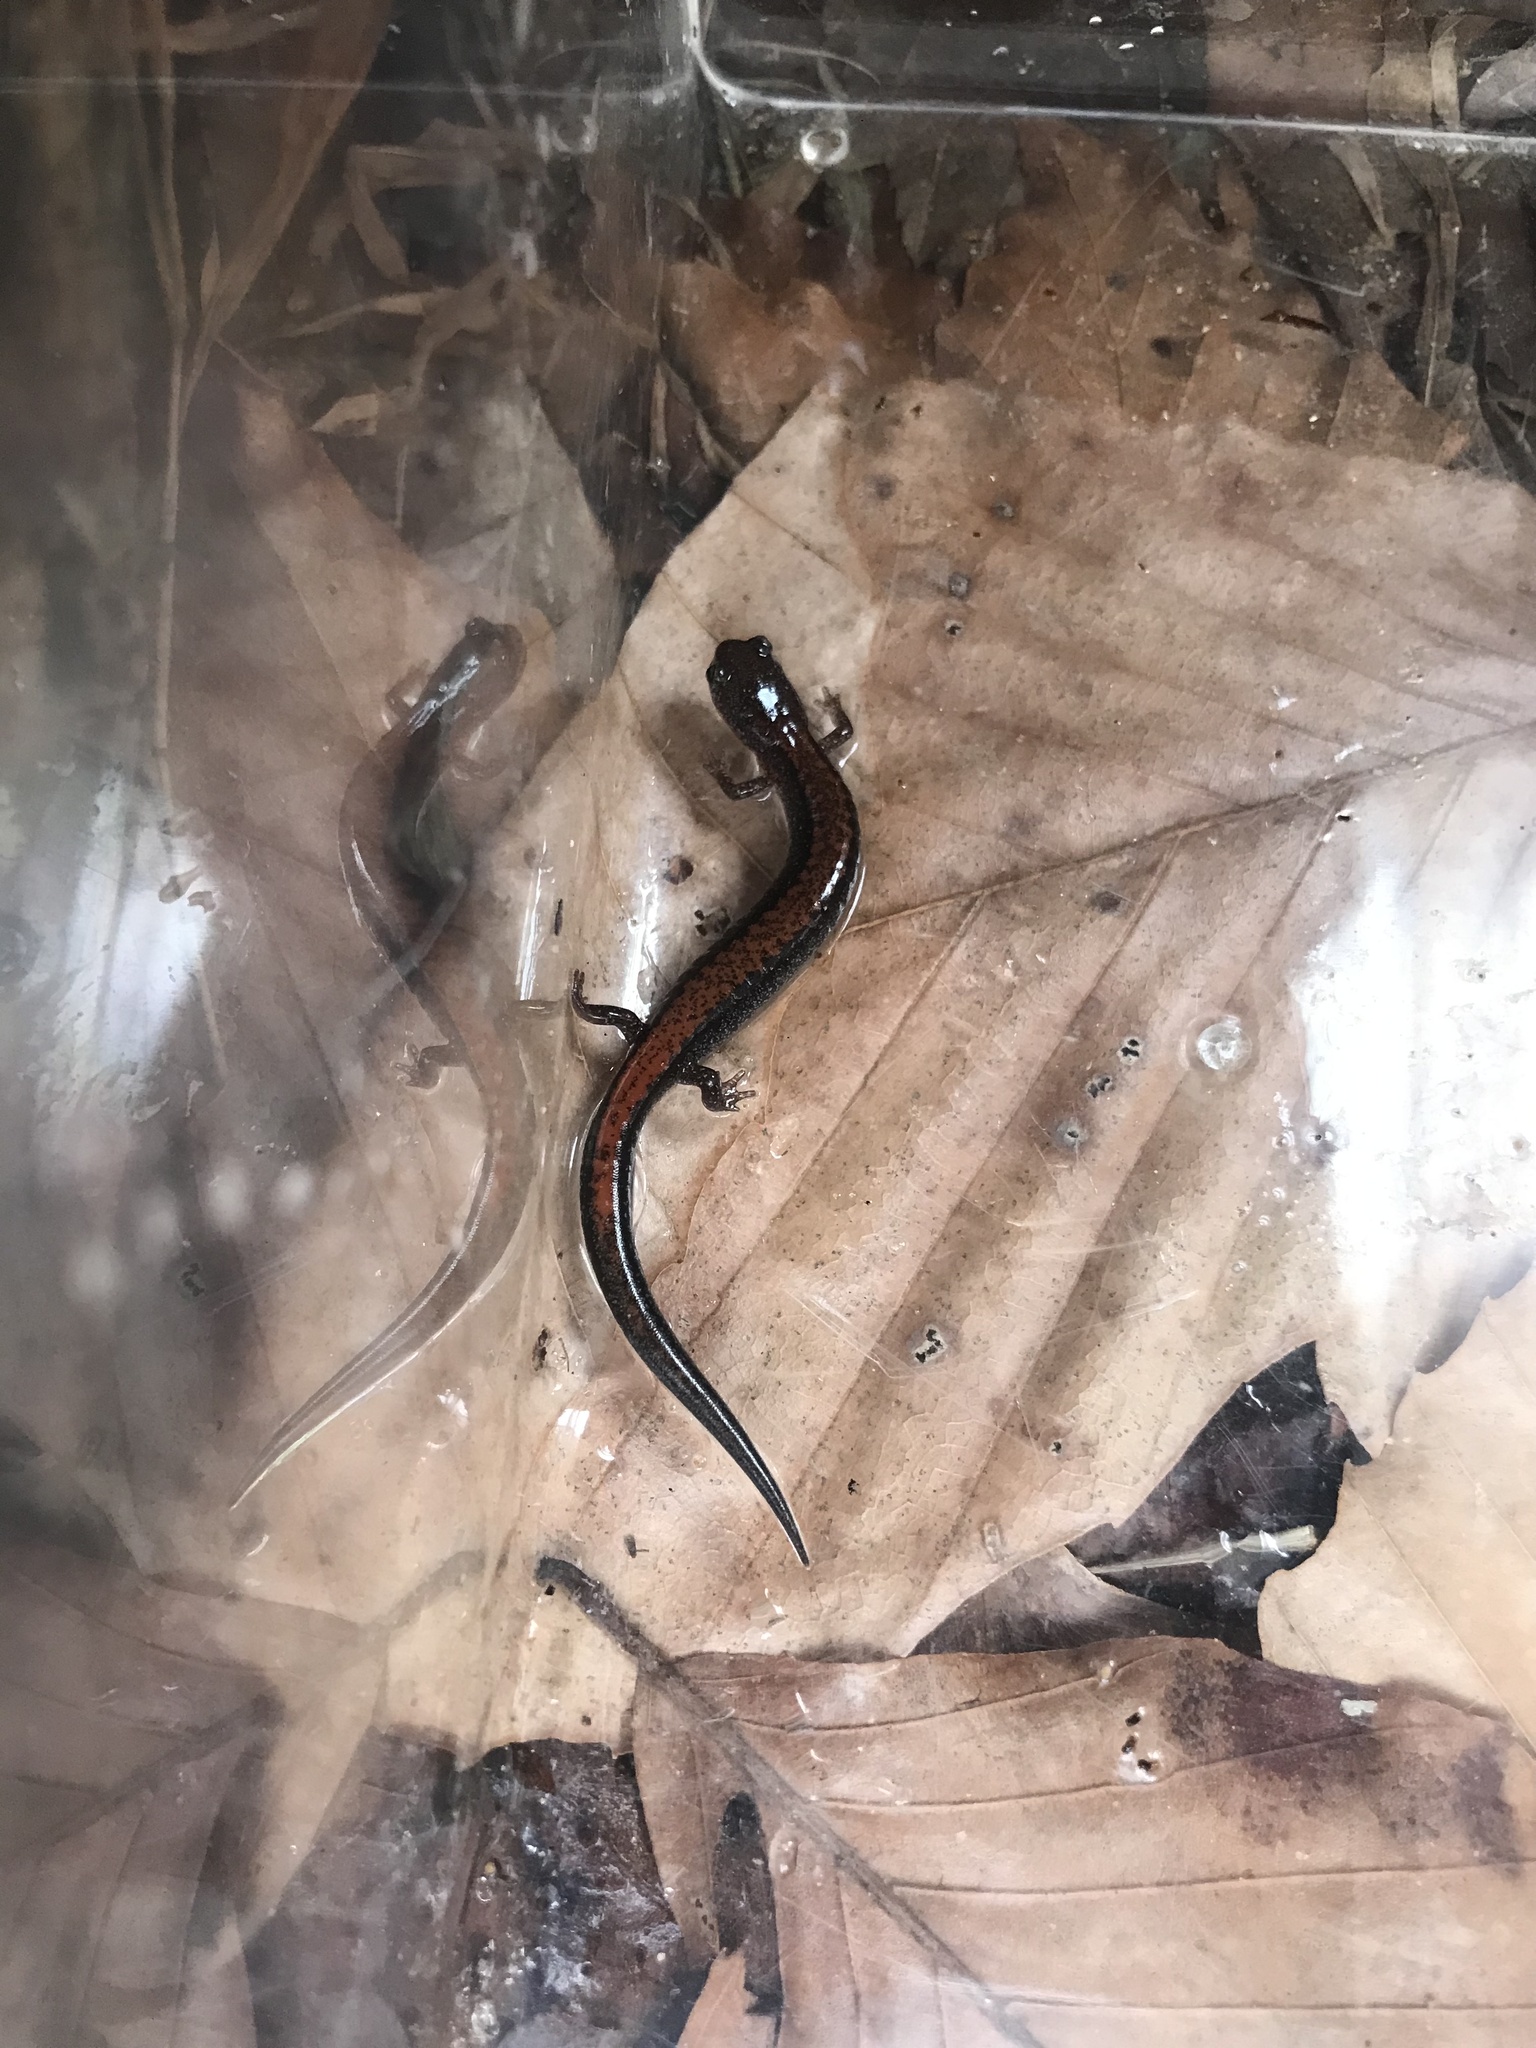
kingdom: Animalia
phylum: Chordata
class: Amphibia
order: Caudata
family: Plethodontidae
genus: Plethodon
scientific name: Plethodon cinereus
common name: Redback salamander
